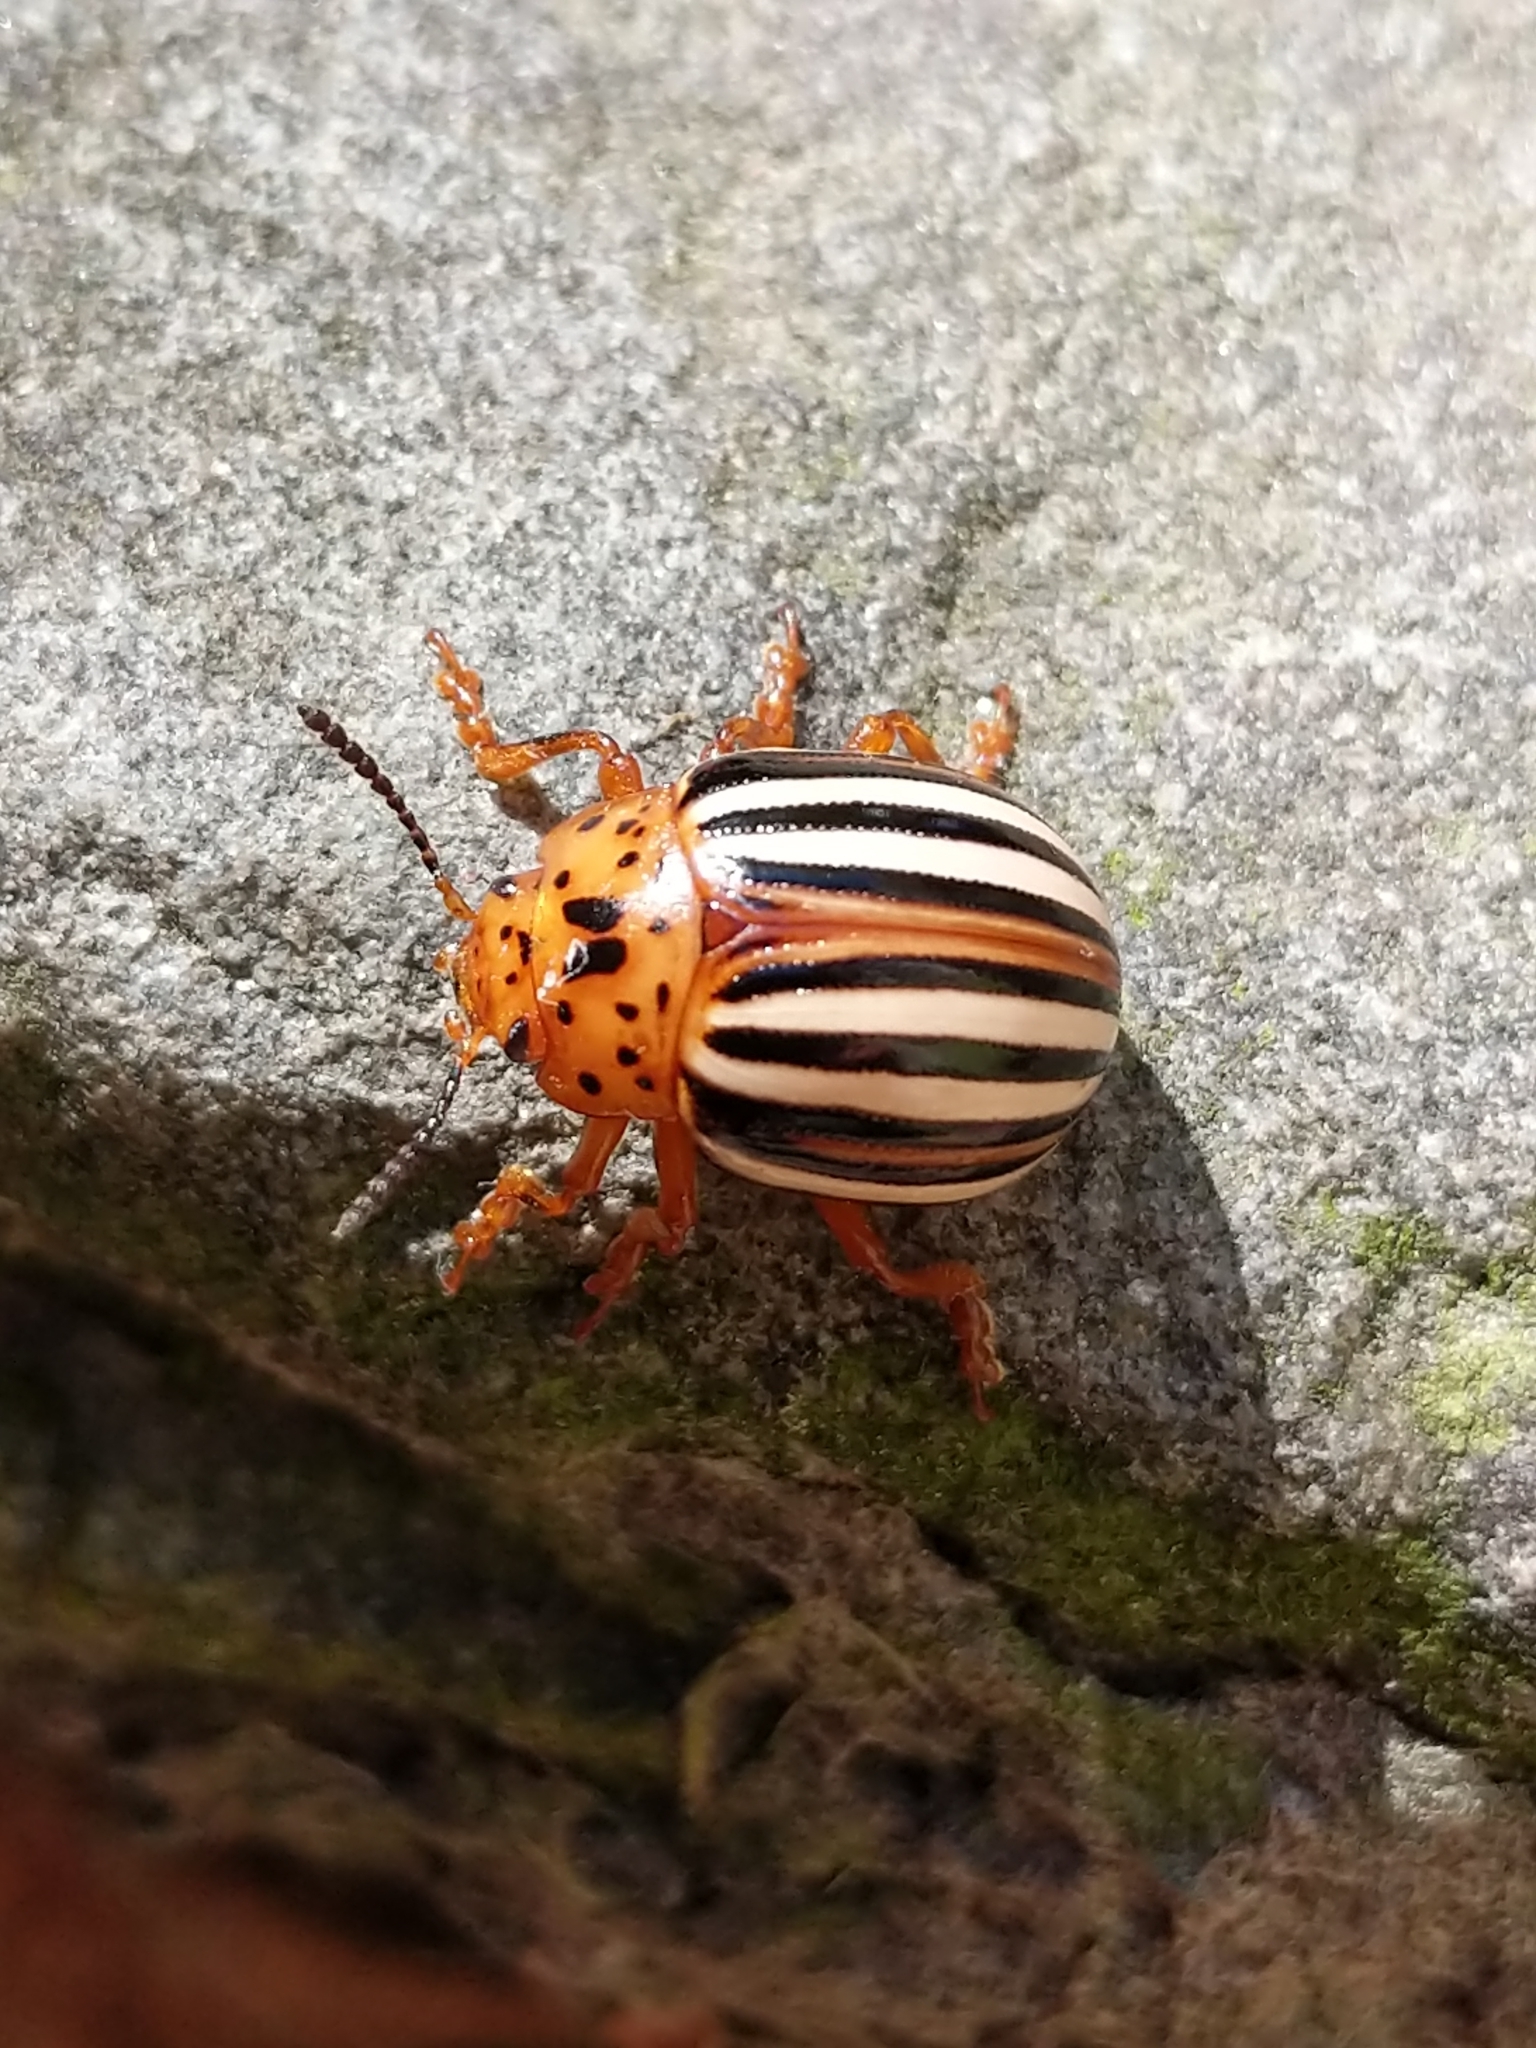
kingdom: Animalia
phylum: Arthropoda
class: Insecta
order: Coleoptera
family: Chrysomelidae
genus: Leptinotarsa
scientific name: Leptinotarsa juncta
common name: False potato beetle
